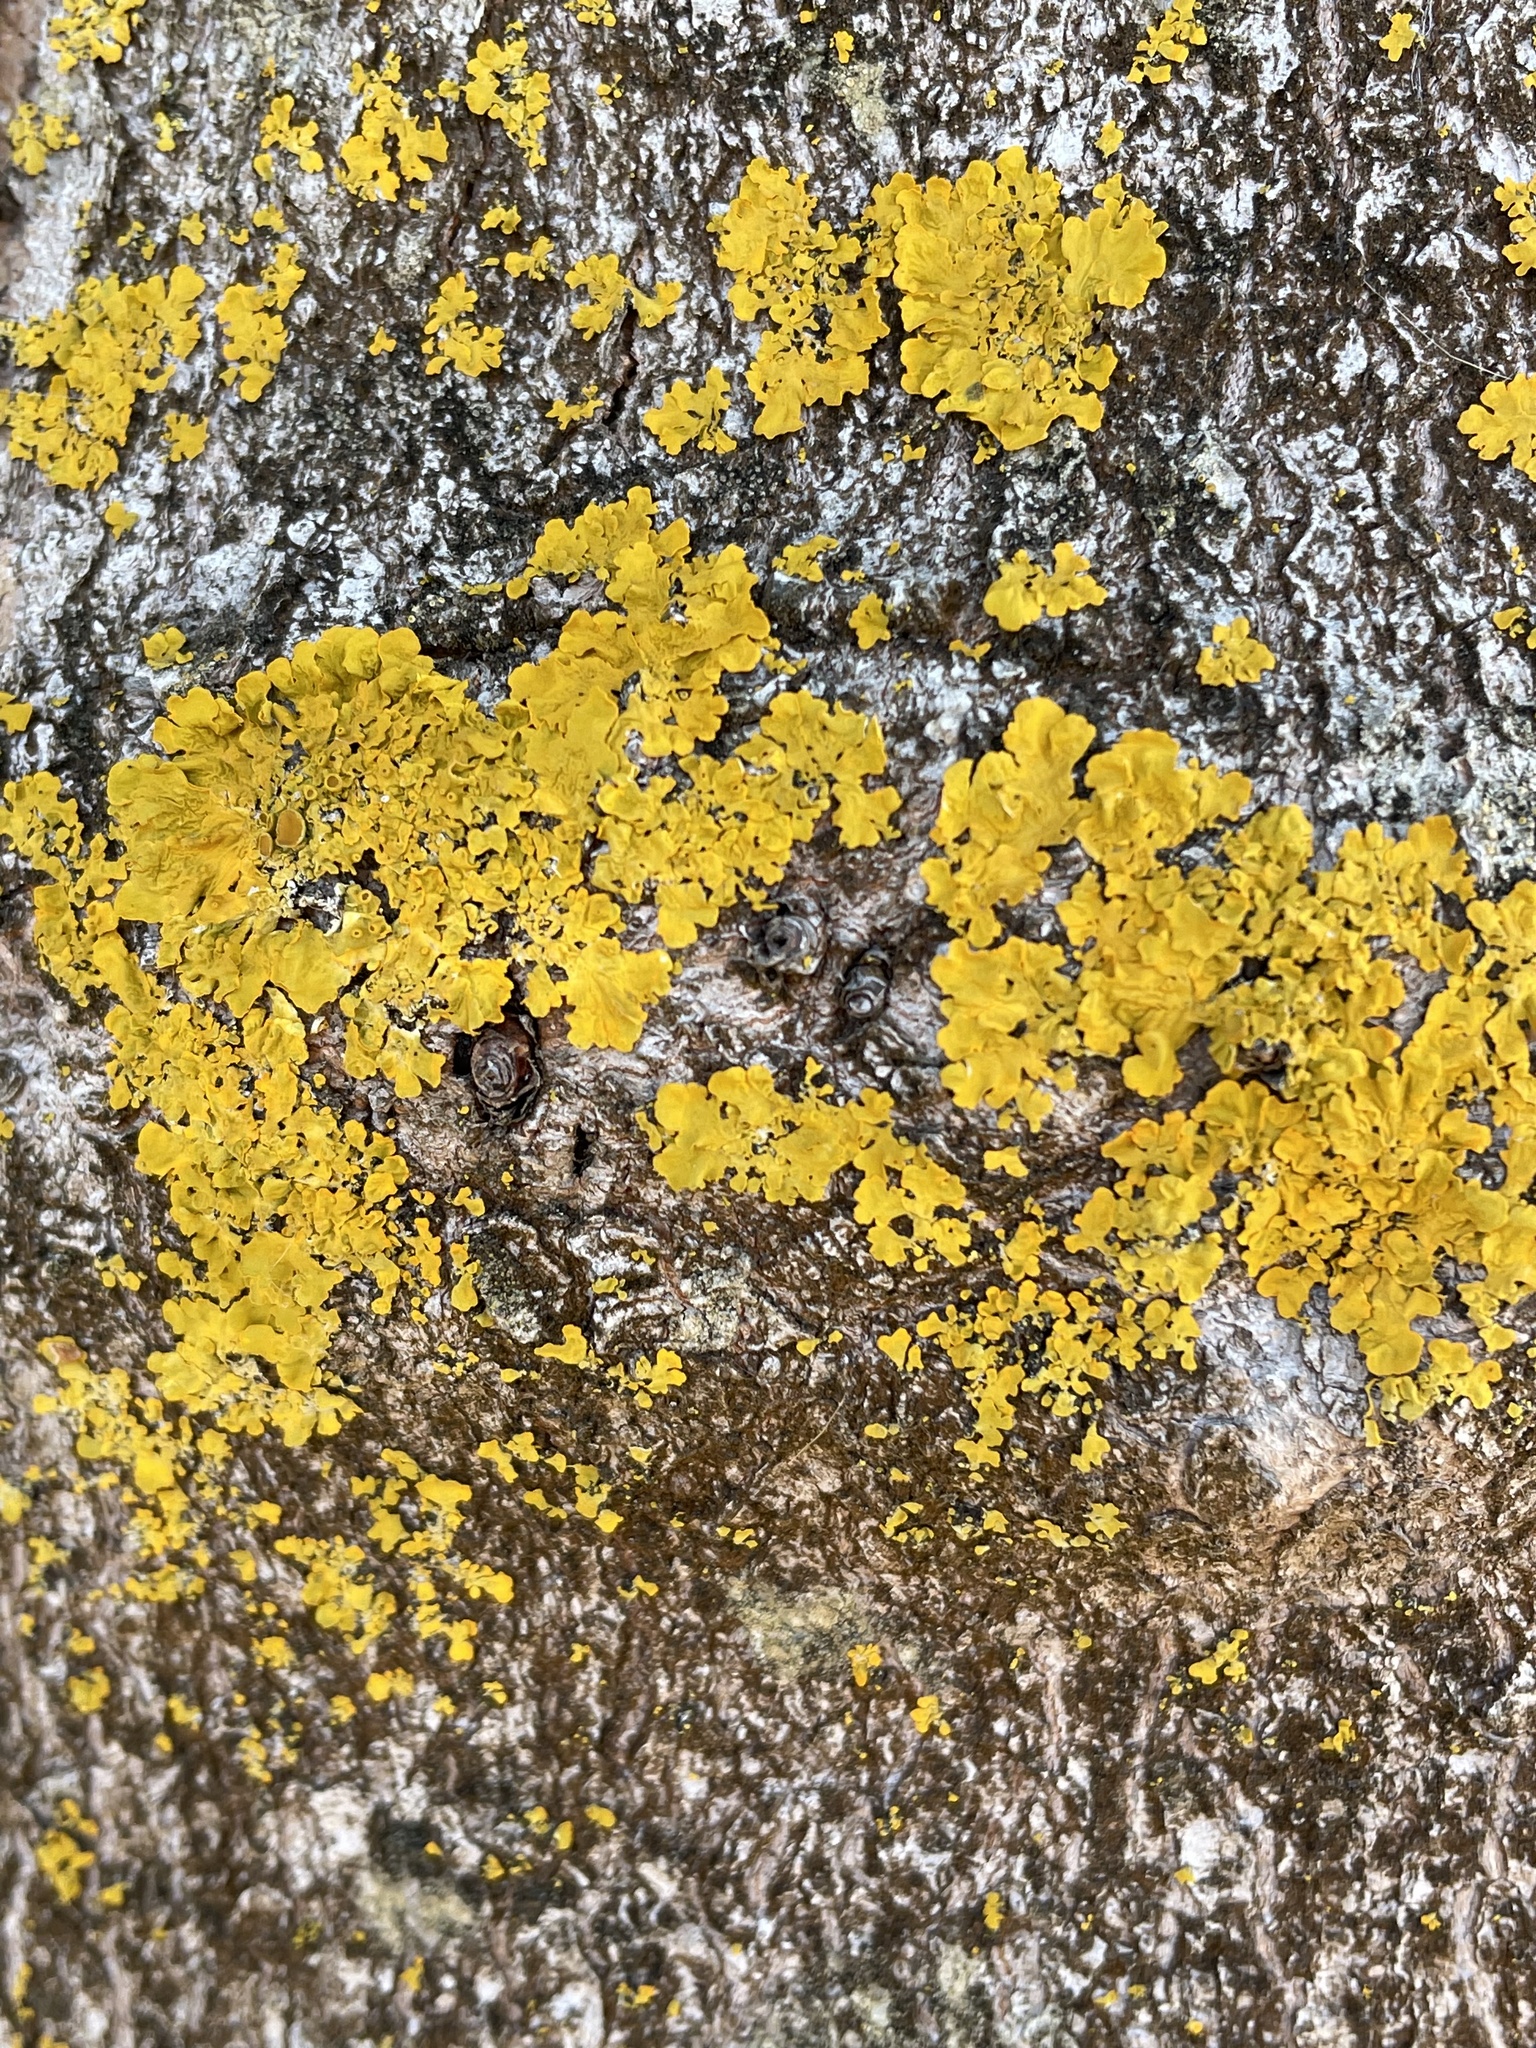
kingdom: Fungi
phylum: Ascomycota
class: Lecanoromycetes
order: Teloschistales
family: Teloschistaceae
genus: Xanthoria
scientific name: Xanthoria parietina
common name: Common orange lichen
